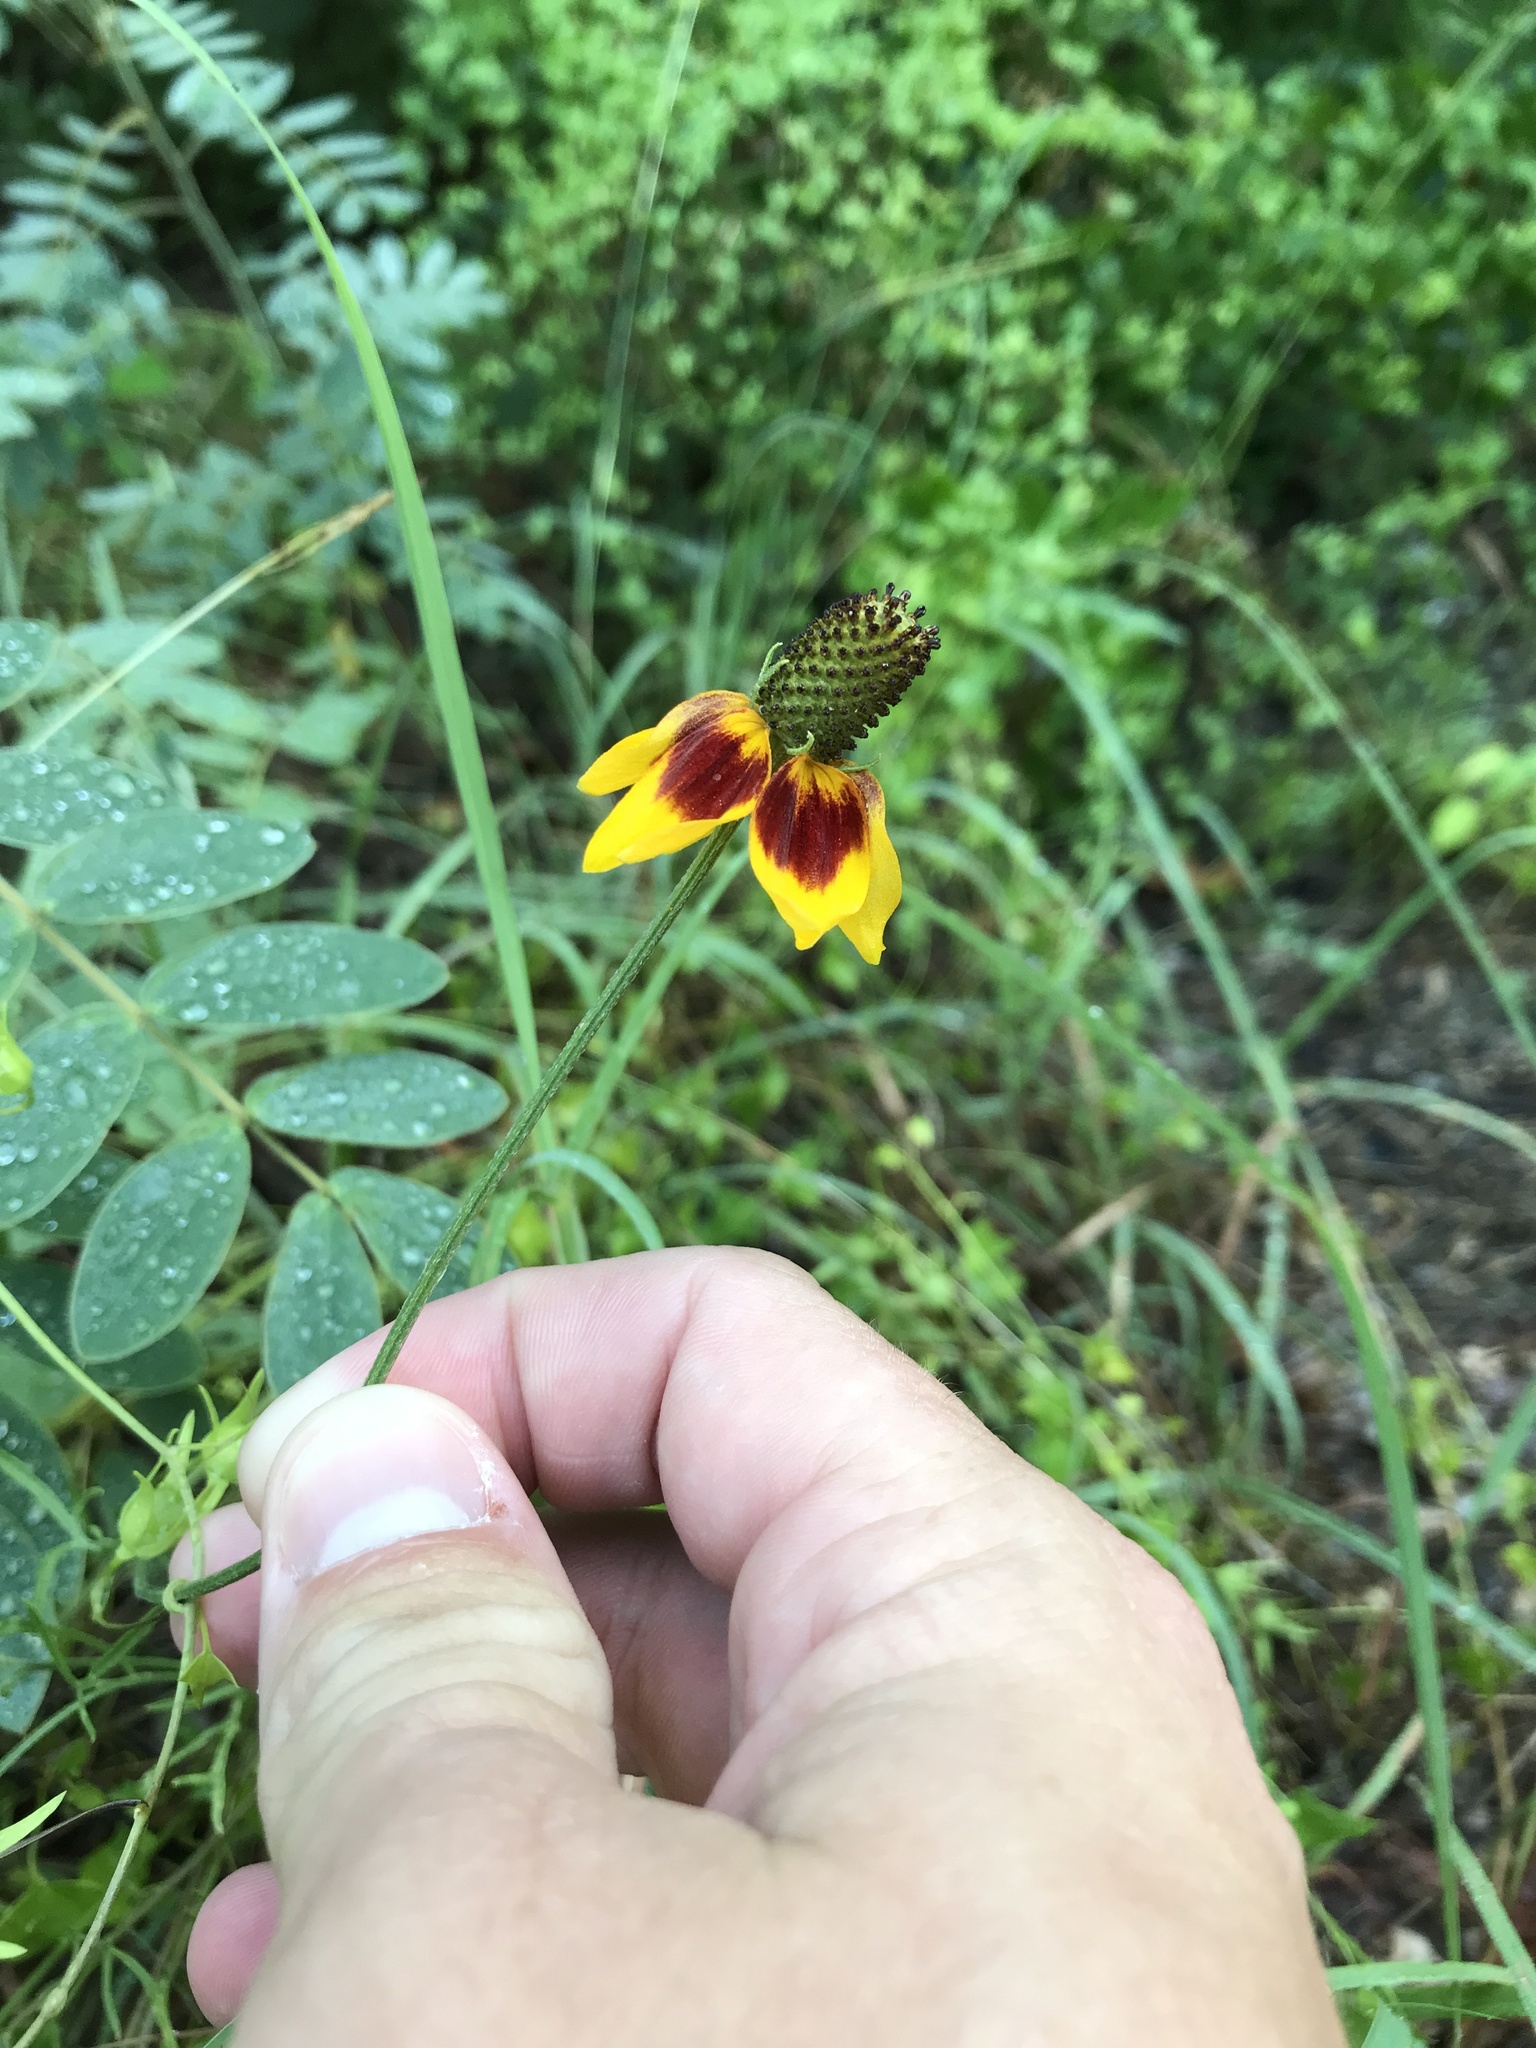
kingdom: Plantae
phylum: Tracheophyta
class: Magnoliopsida
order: Asterales
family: Asteraceae
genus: Ratibida
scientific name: Ratibida columnifera
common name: Prairie coneflower
